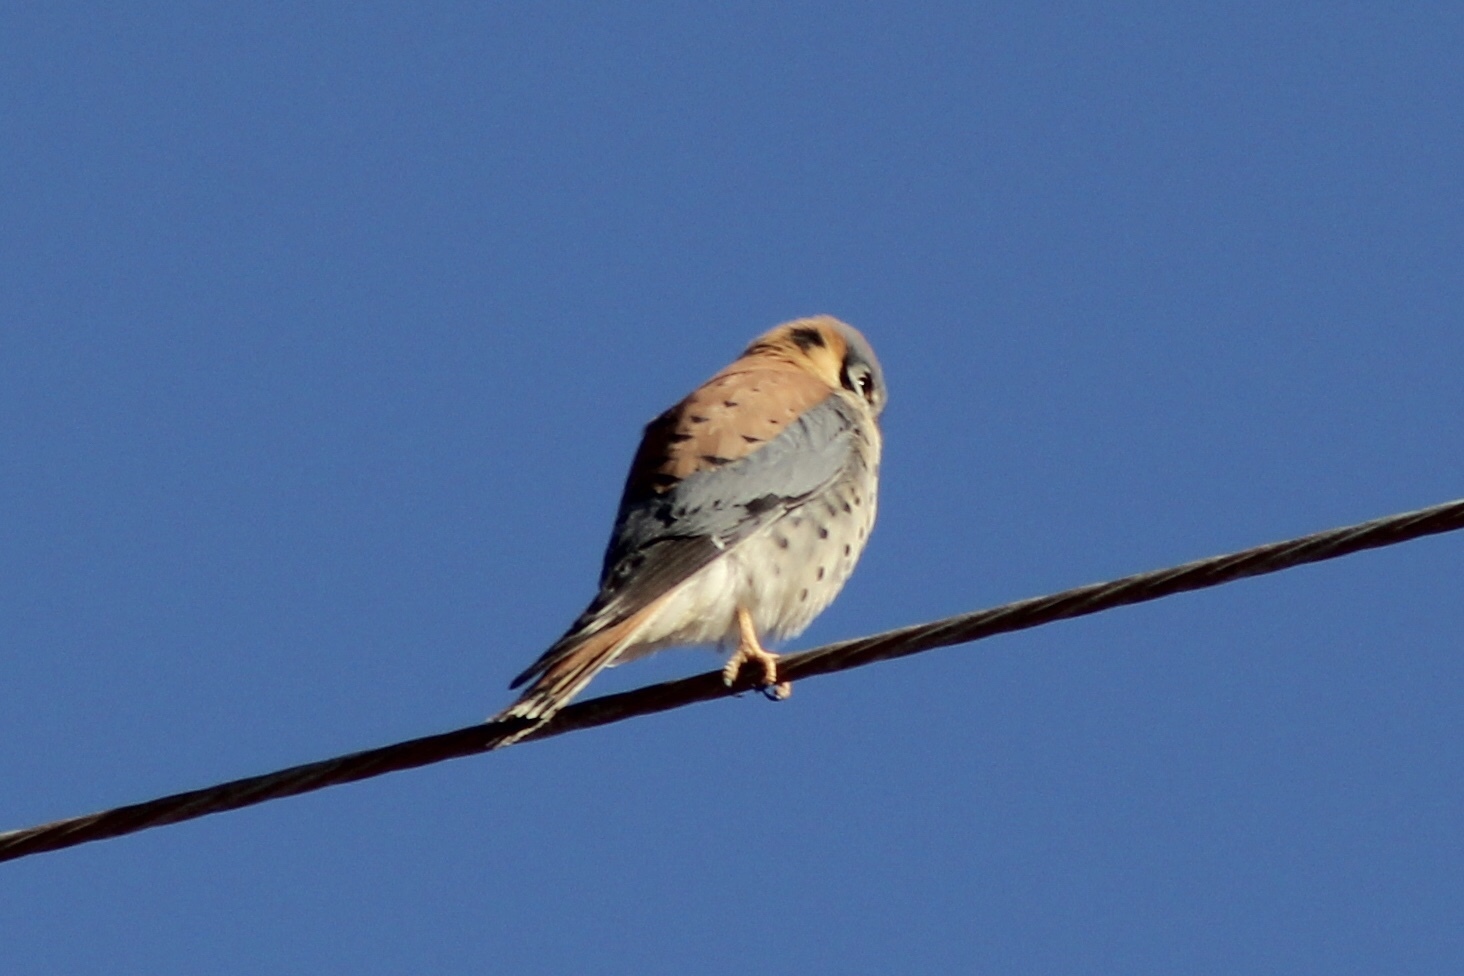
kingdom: Animalia
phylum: Chordata
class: Aves
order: Falconiformes
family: Falconidae
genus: Falco
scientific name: Falco sparverius
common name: American kestrel
